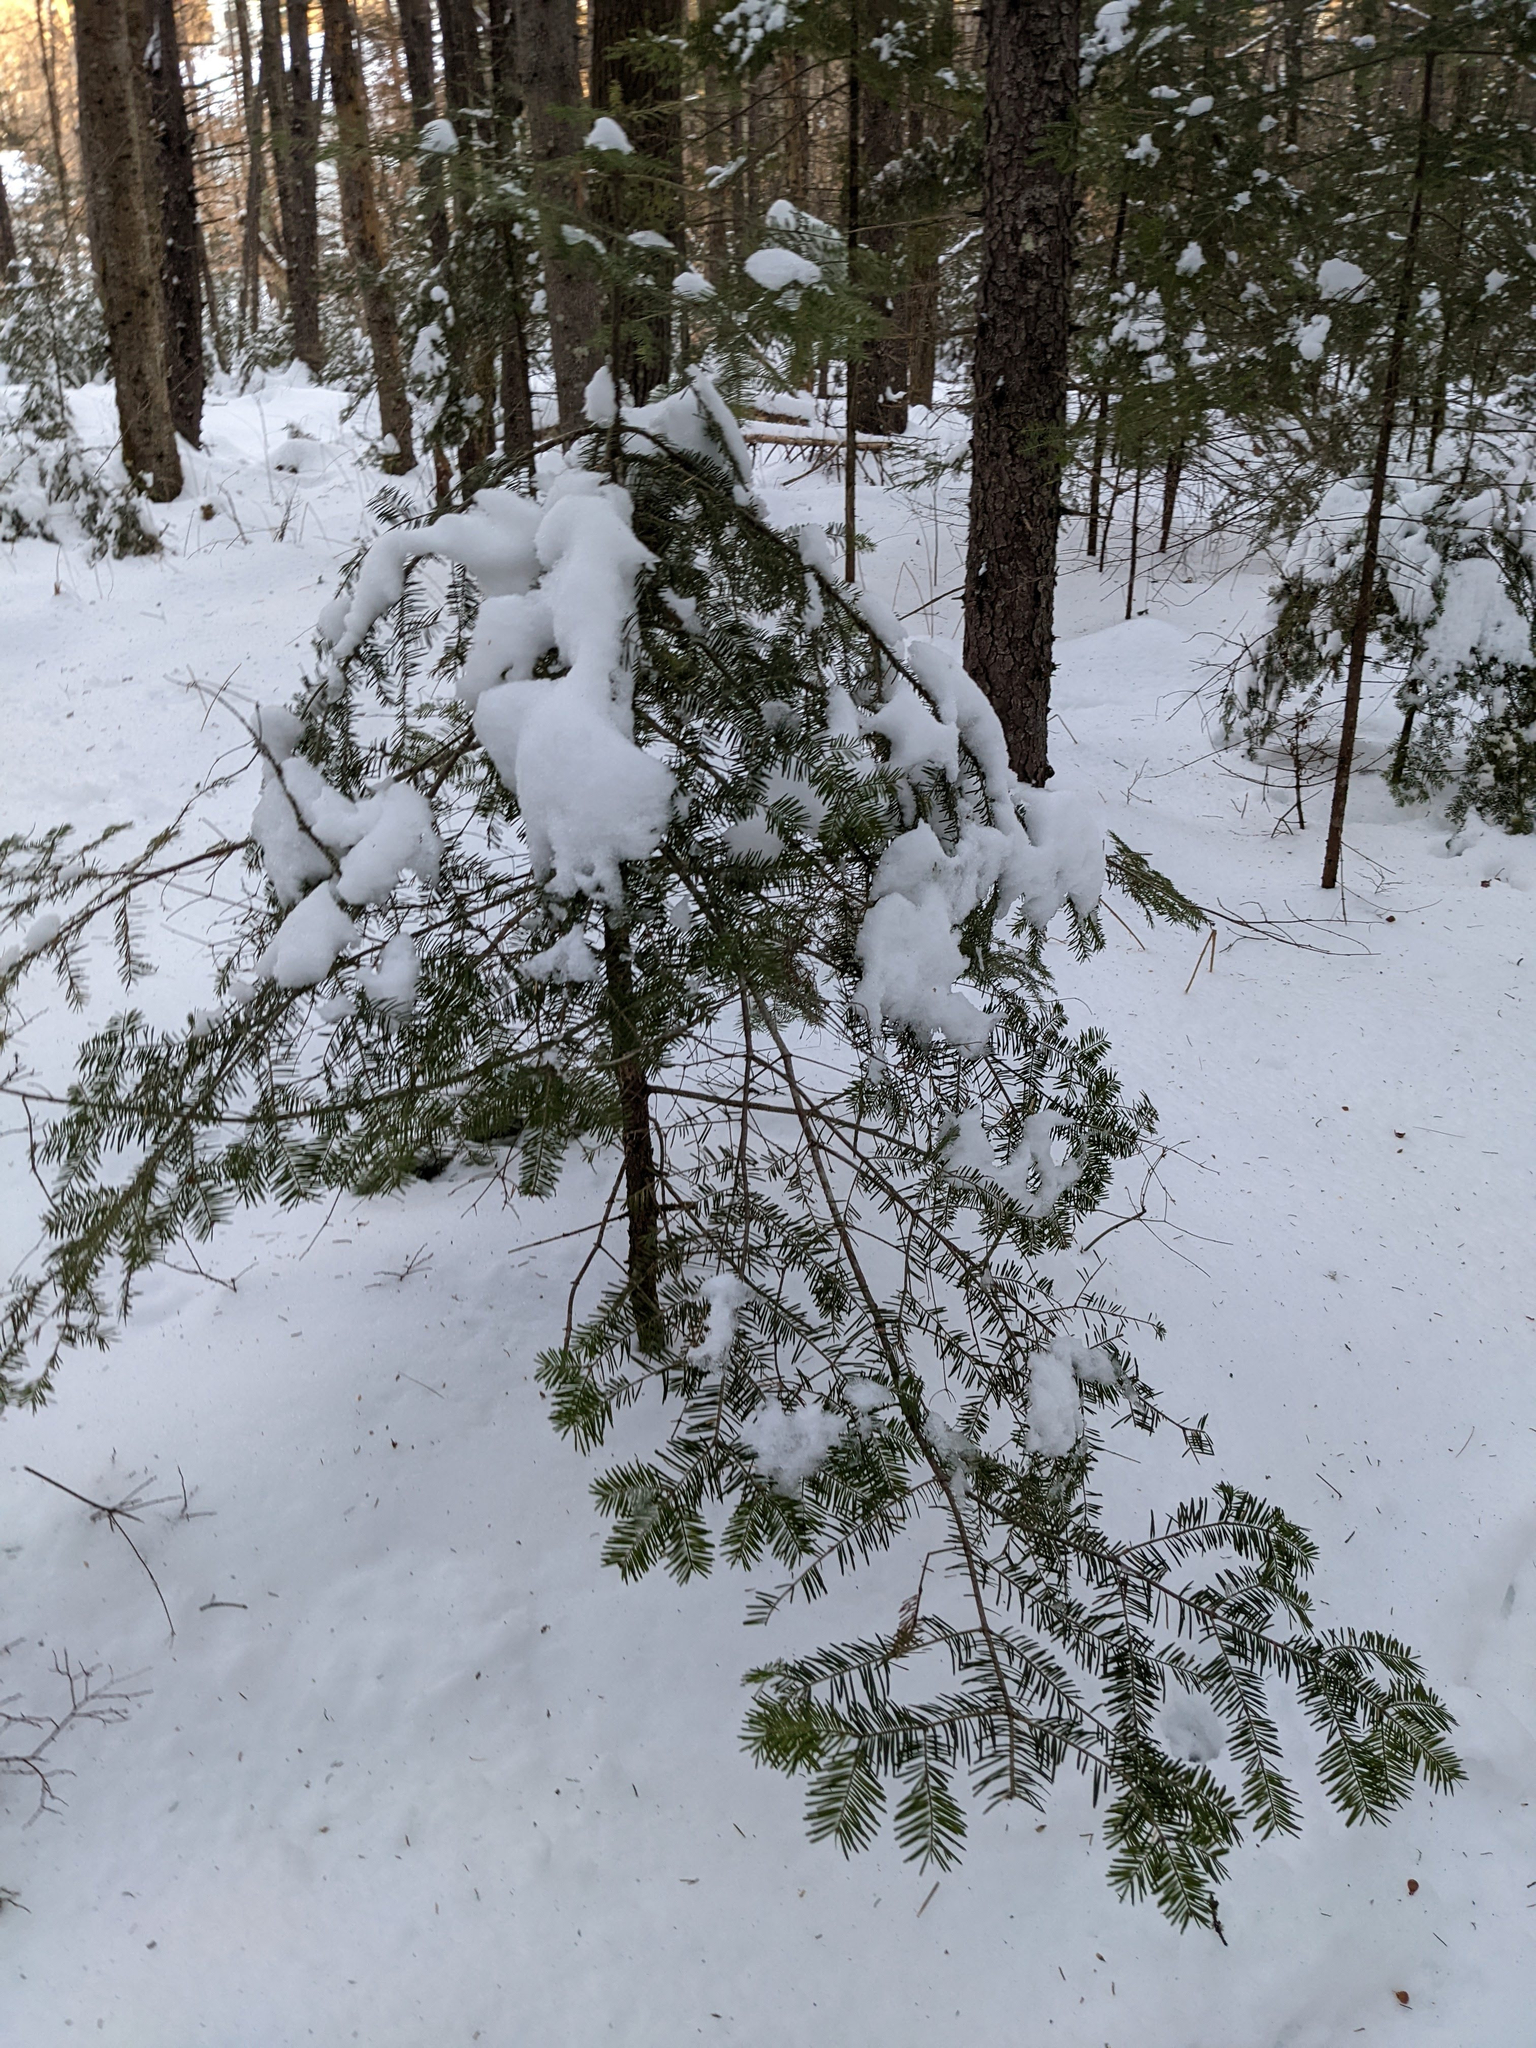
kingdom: Plantae
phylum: Tracheophyta
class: Pinopsida
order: Pinales
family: Pinaceae
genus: Abies
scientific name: Abies balsamea
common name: Balsam fir
